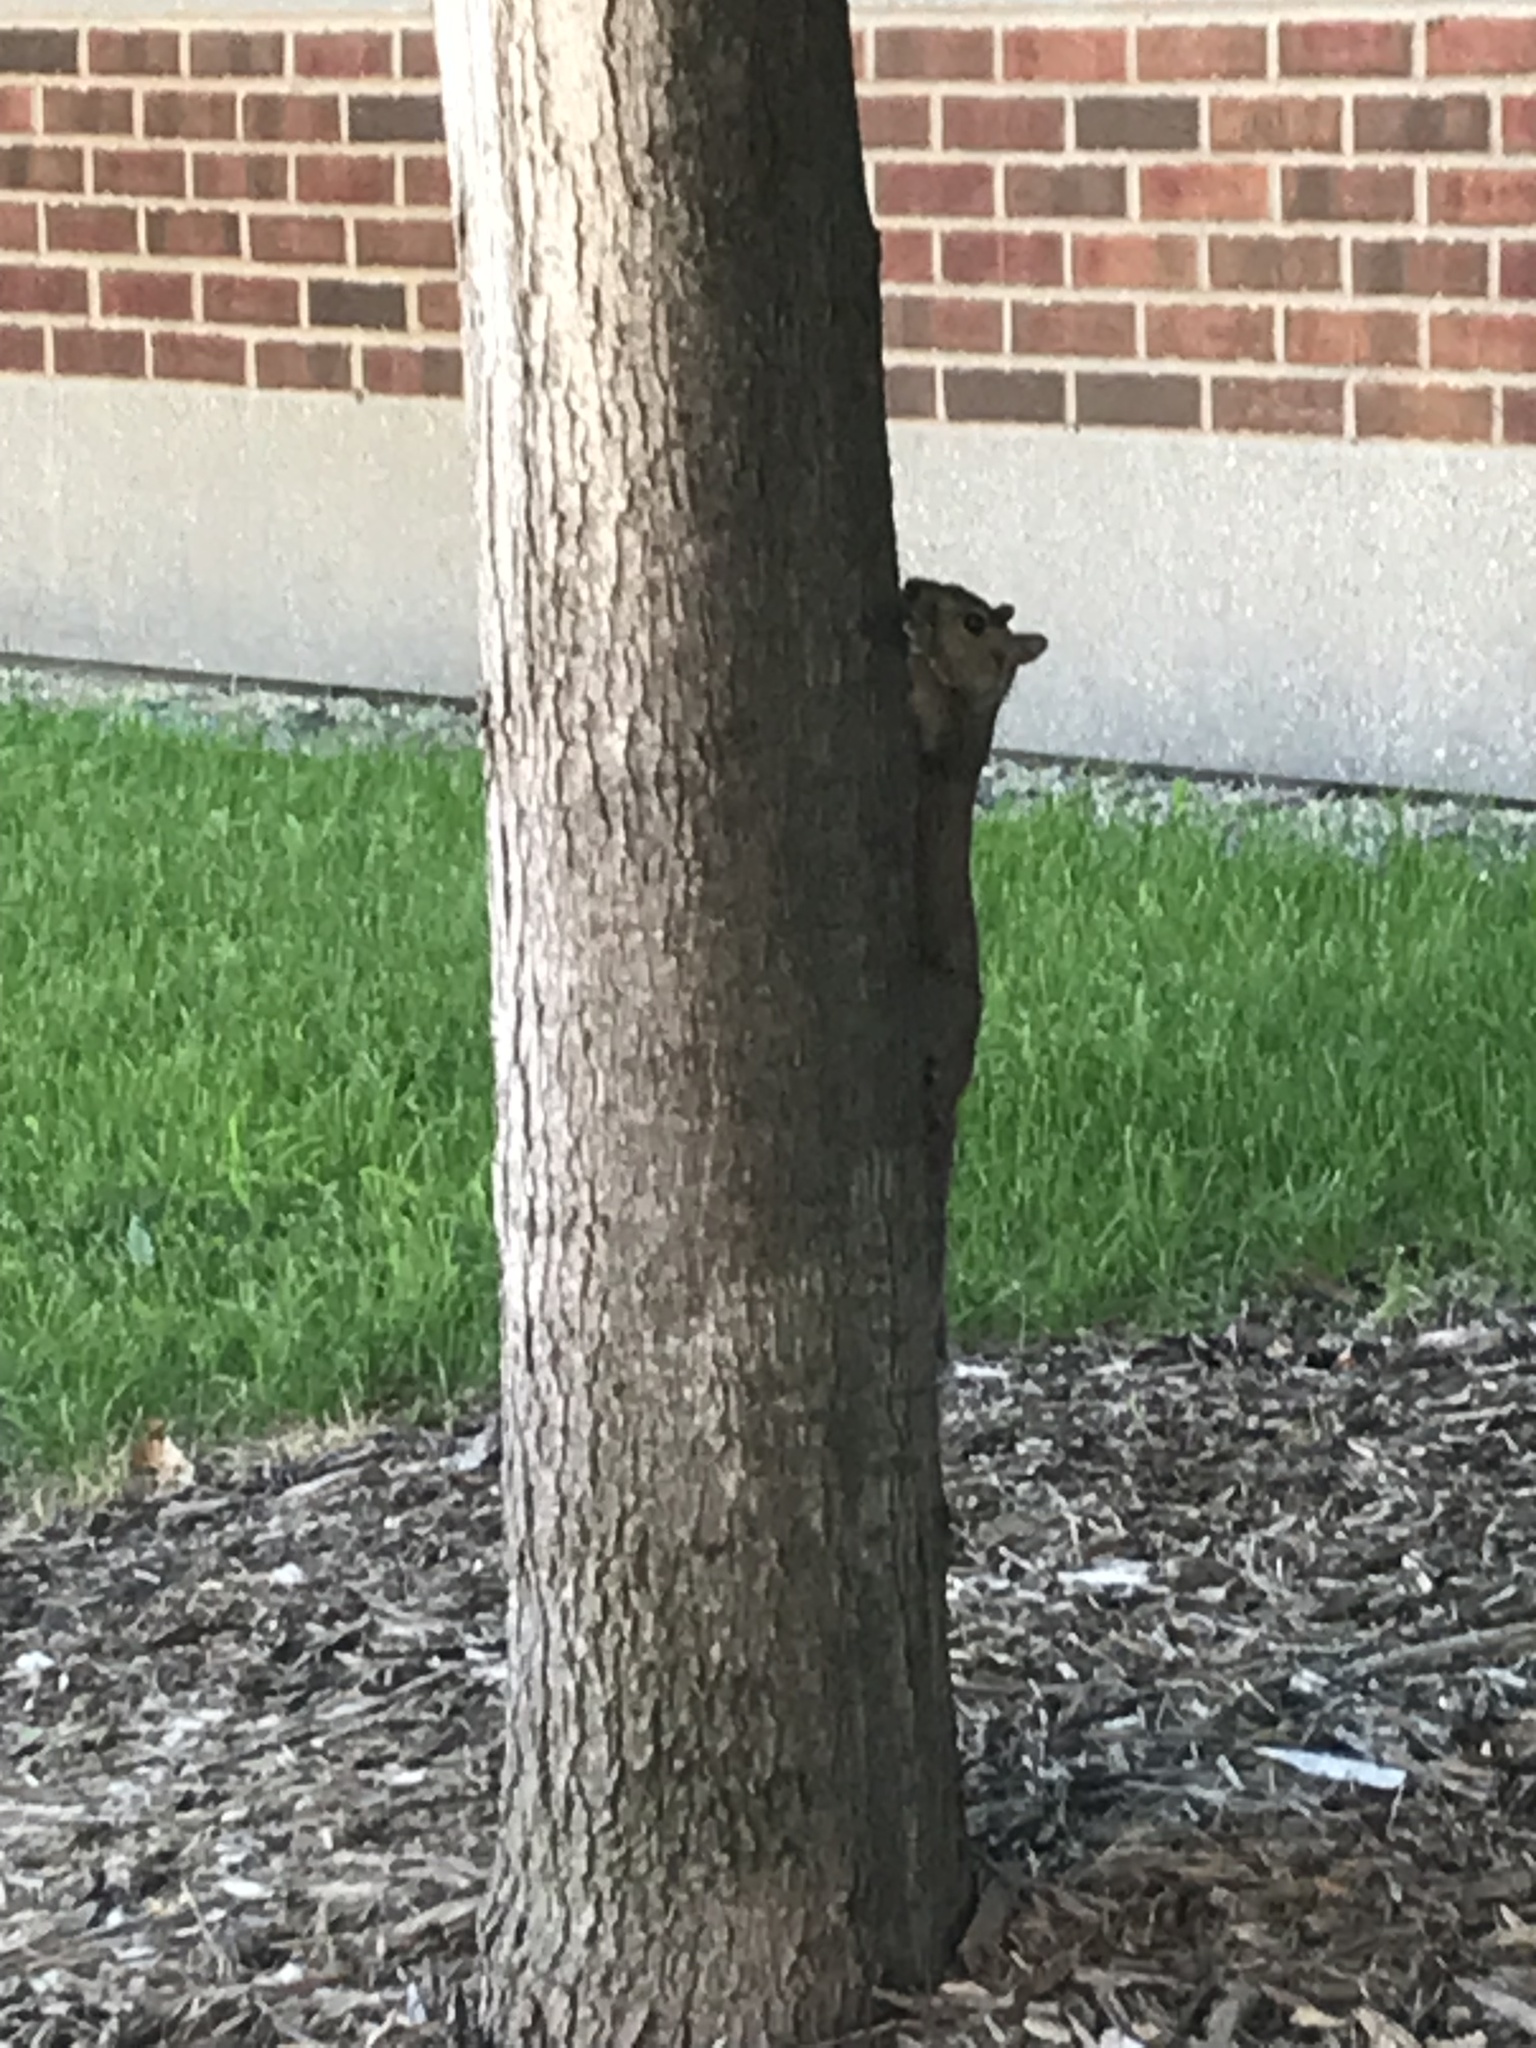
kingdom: Animalia
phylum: Chordata
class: Mammalia
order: Rodentia
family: Sciuridae
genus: Sciurus
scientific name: Sciurus carolinensis
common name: Eastern gray squirrel
